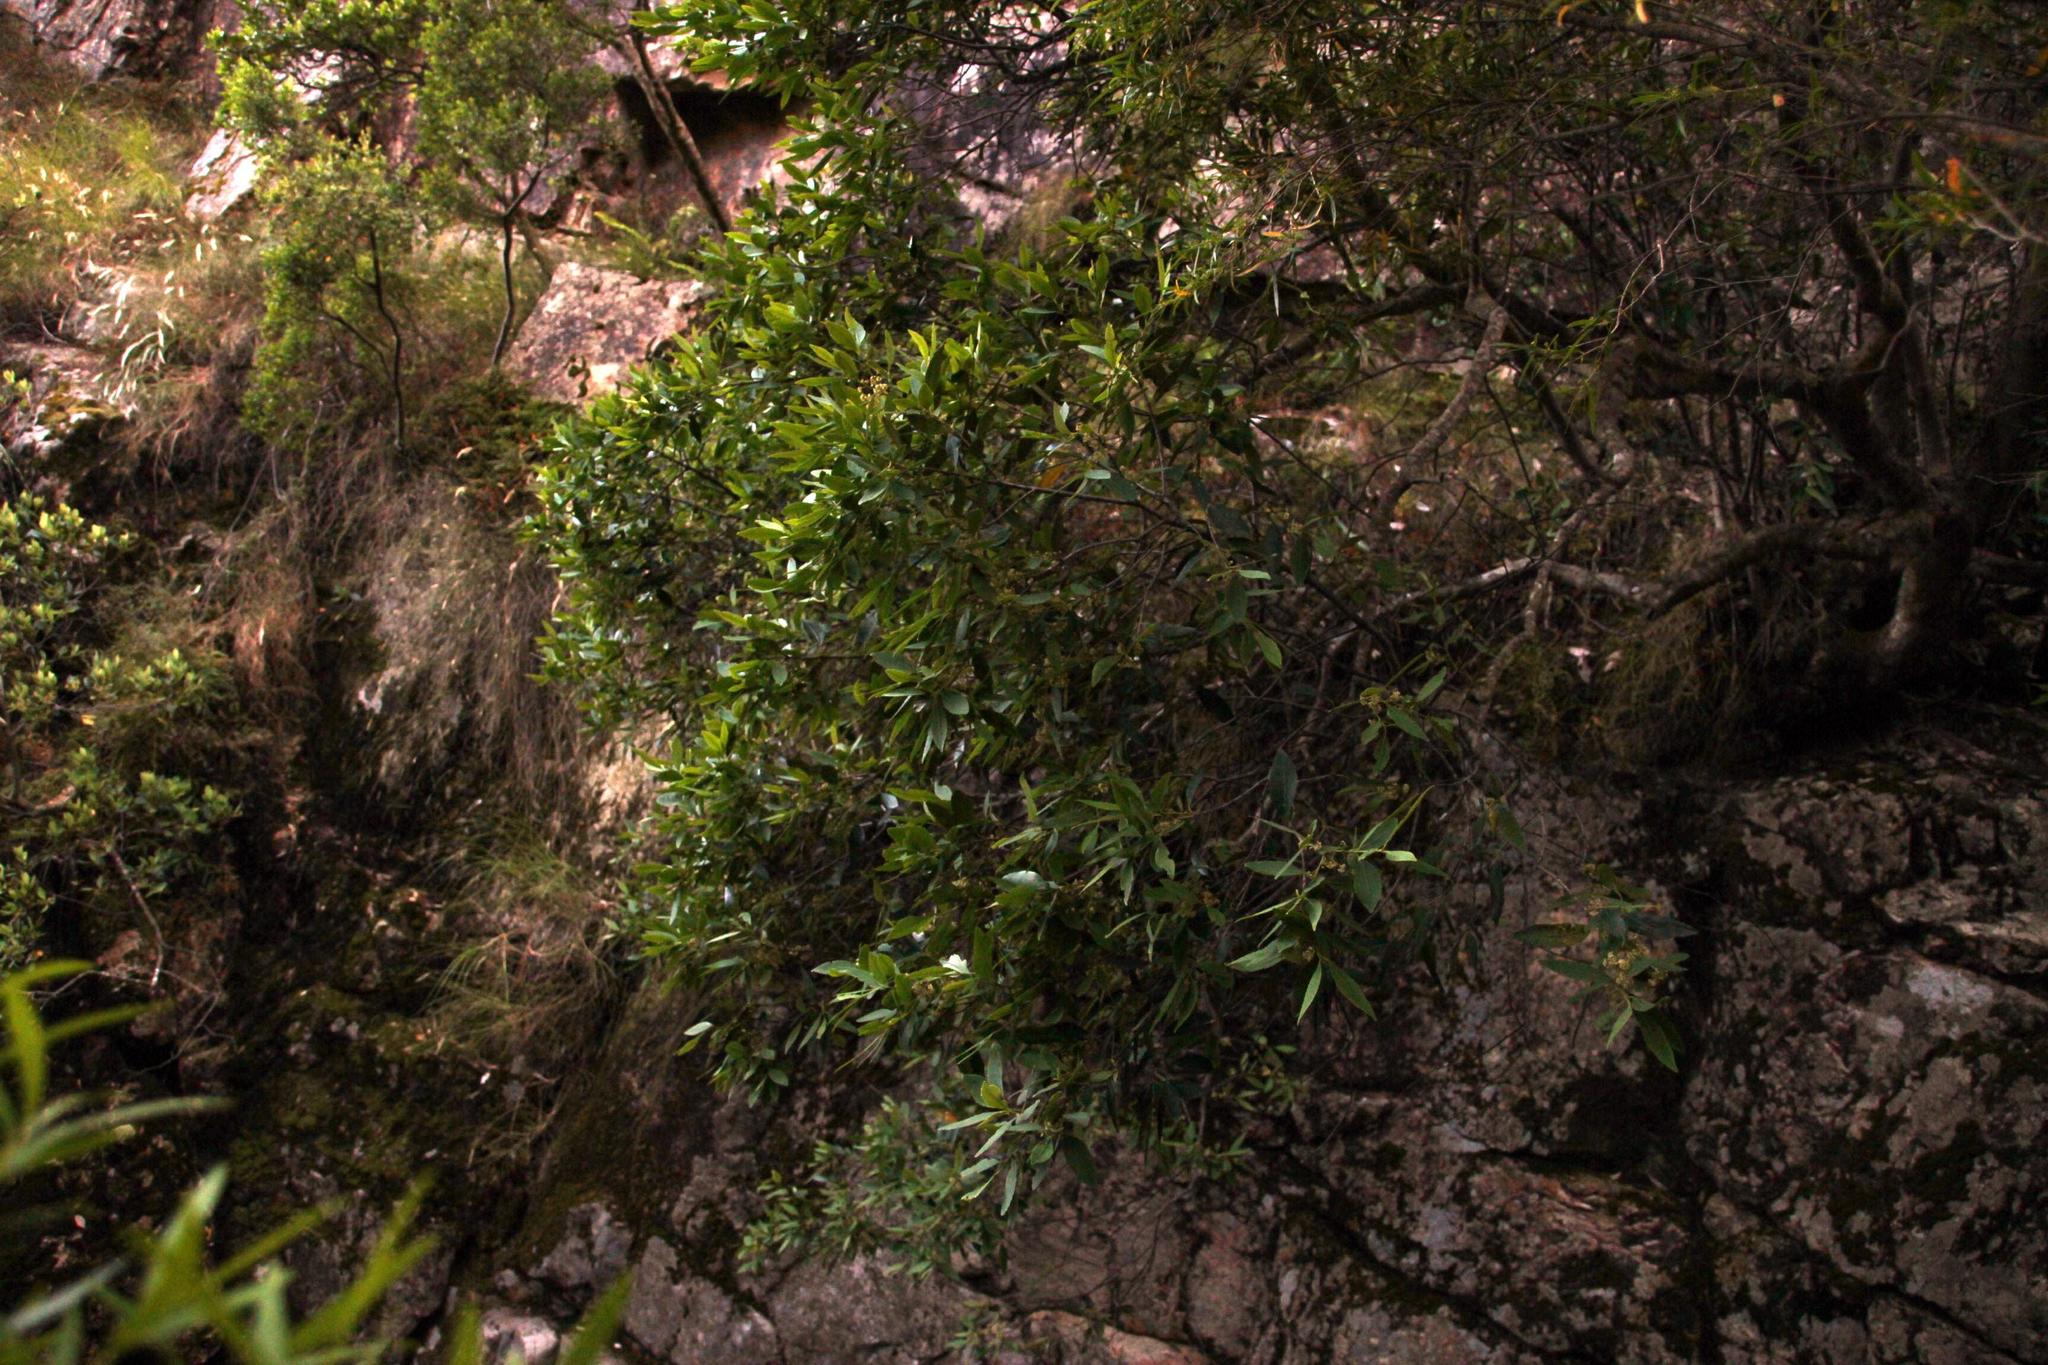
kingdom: Plantae
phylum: Tracheophyta
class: Magnoliopsida
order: Celastrales
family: Celastraceae
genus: Elaeodendron
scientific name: Elaeodendron schinoides
